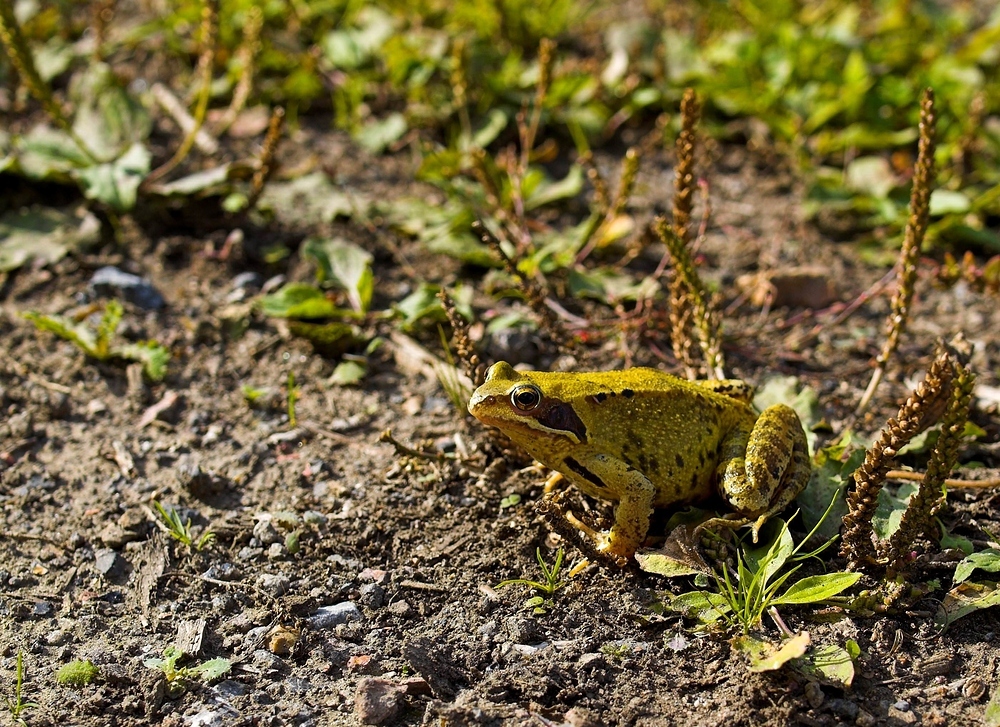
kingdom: Animalia
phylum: Chordata
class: Amphibia
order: Anura
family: Ranidae
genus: Rana
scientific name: Rana temporaria
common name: Common frog
